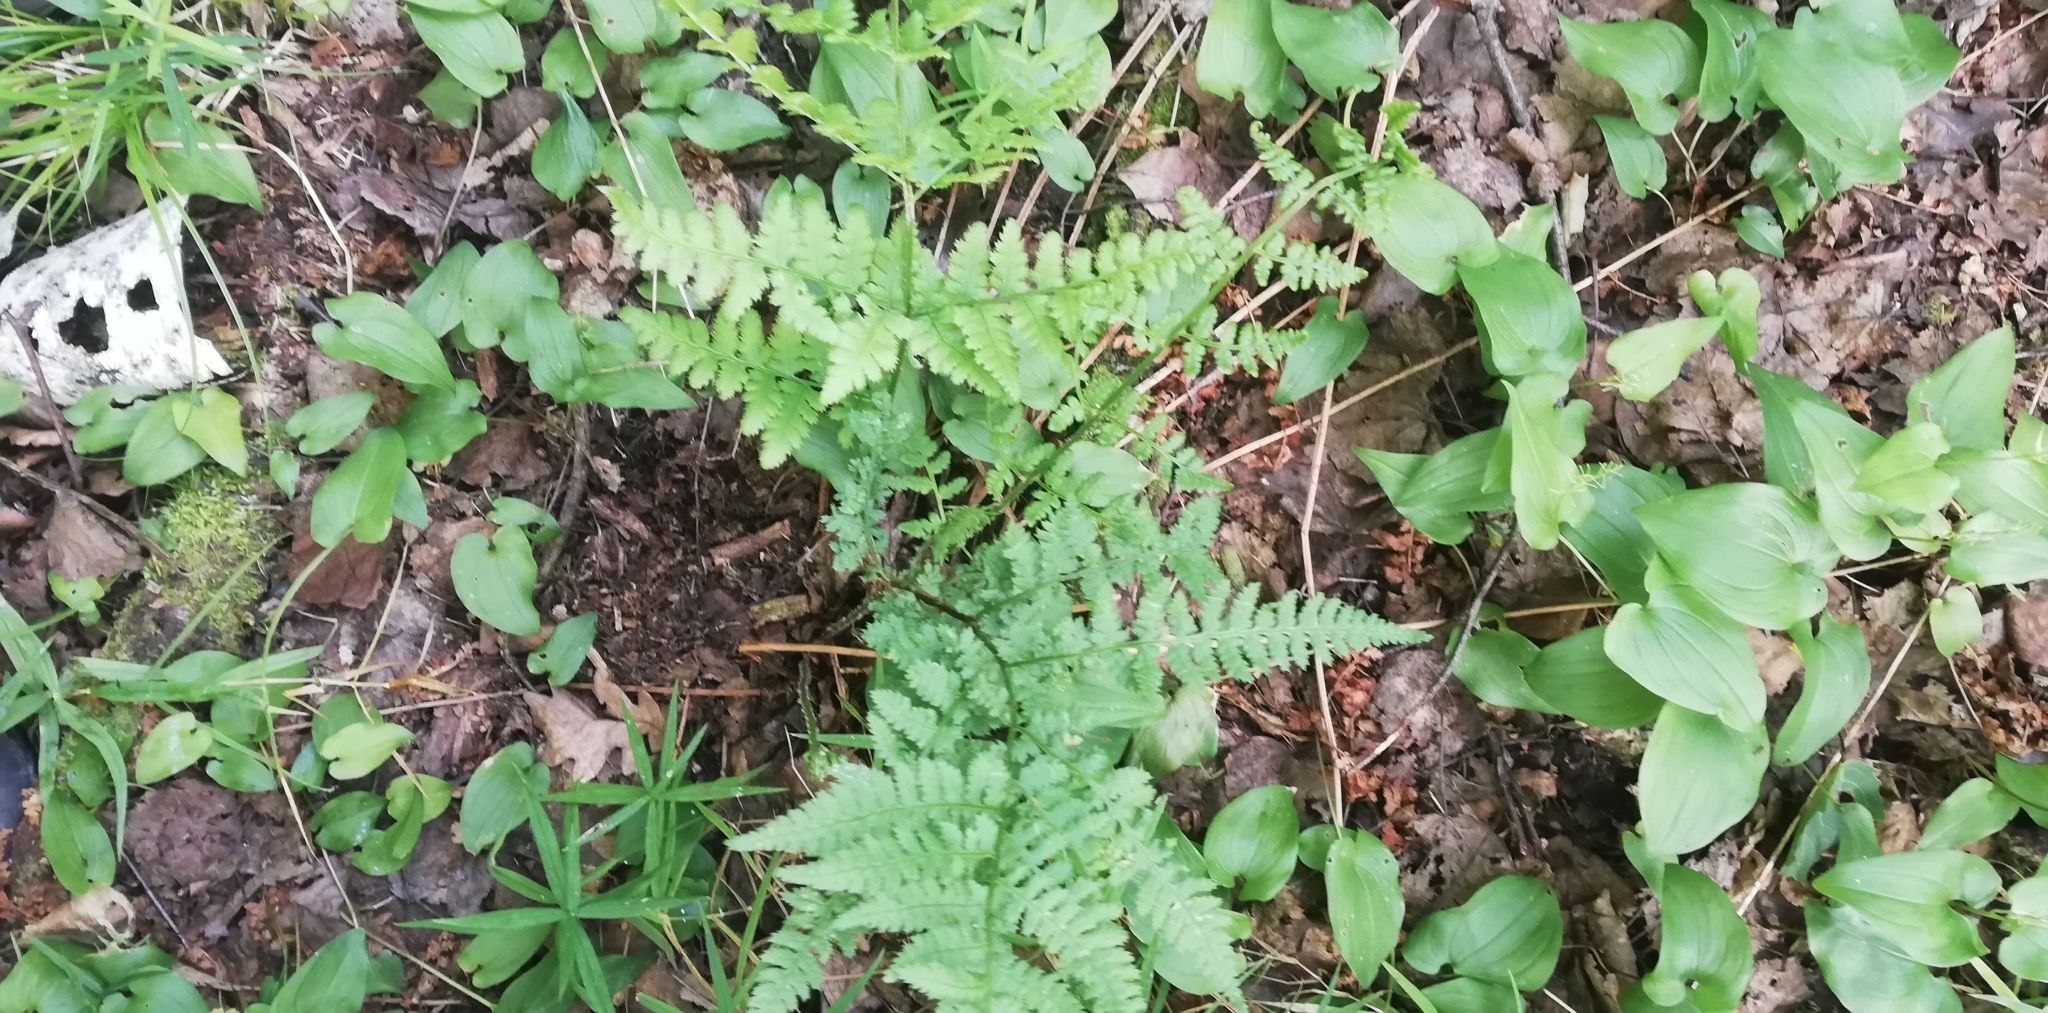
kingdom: Plantae
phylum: Tracheophyta
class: Polypodiopsida
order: Polypodiales
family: Dryopteridaceae
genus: Dryopteris
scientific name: Dryopteris carthusiana
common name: Narrow buckler-fern
